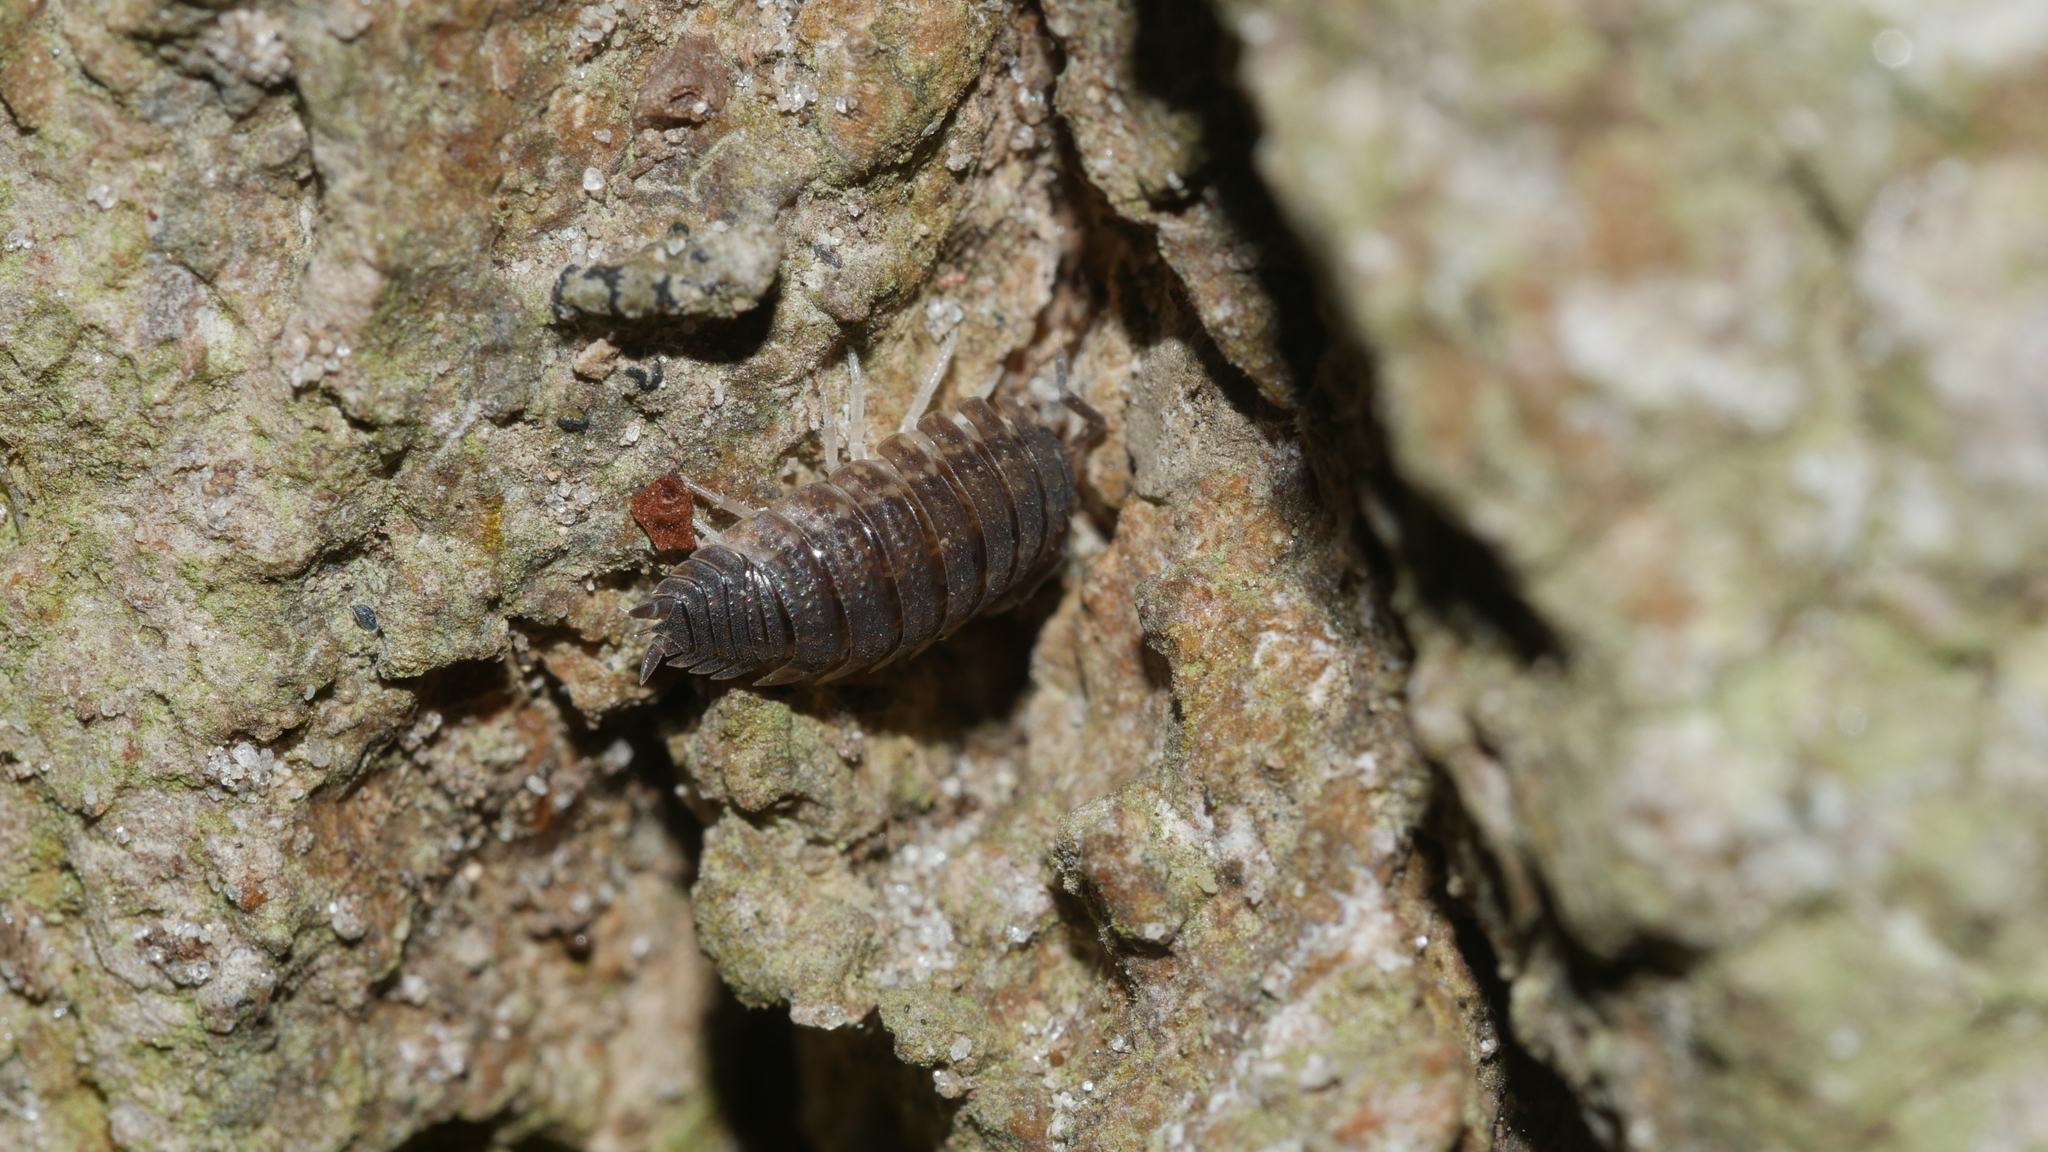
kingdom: Animalia
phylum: Arthropoda
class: Malacostraca
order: Isopoda
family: Porcellionidae
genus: Porcellio
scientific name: Porcellio scaber
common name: Common rough woodlouse
